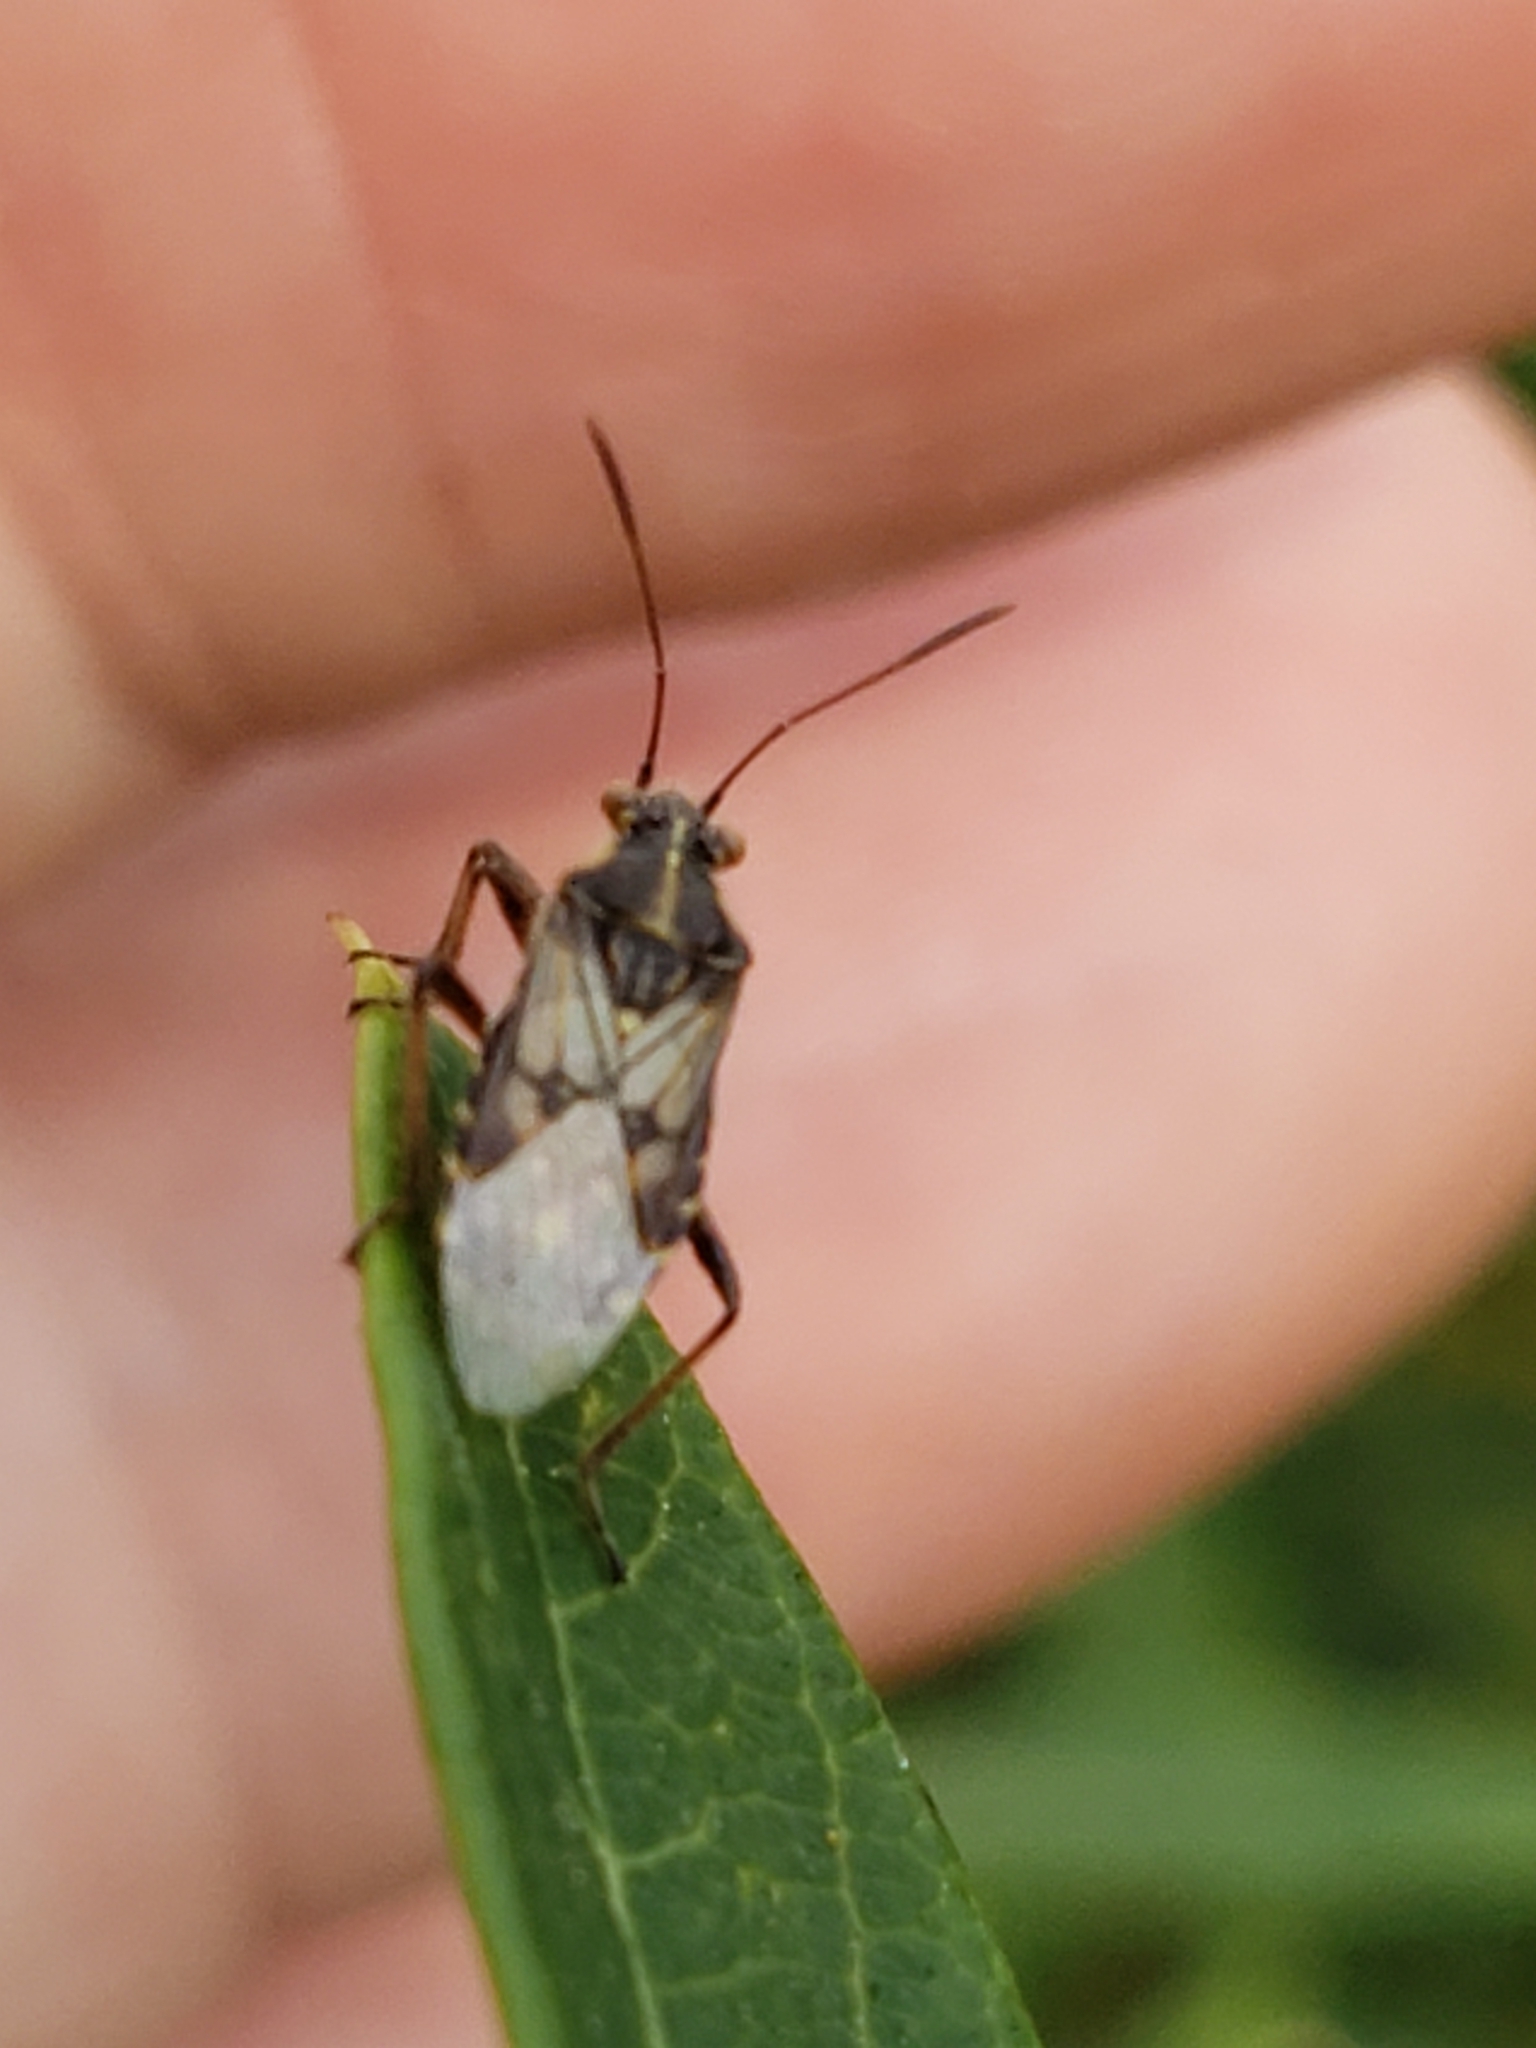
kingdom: Animalia
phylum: Arthropoda
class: Insecta
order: Hemiptera
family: Rhopalidae
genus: Liorhyssus
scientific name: Liorhyssus hyalinus
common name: Scentless plant bug
